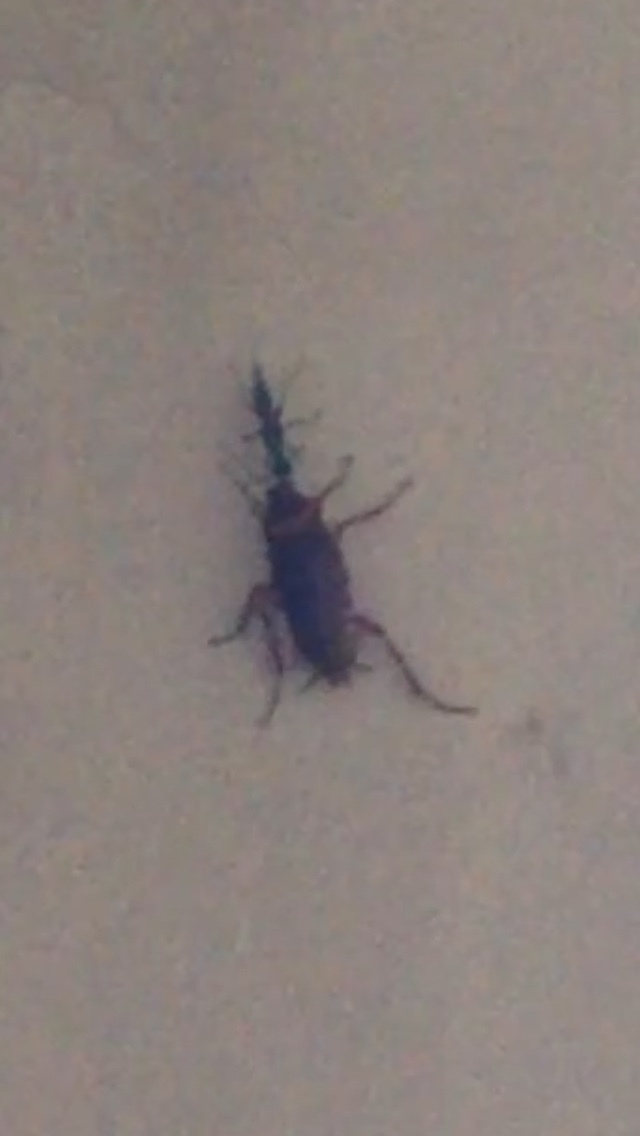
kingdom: Animalia
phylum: Arthropoda
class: Insecta
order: Hymenoptera
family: Ampulicidae
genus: Ampulex
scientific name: Ampulex compressa
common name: Emerald cockroach wasp
